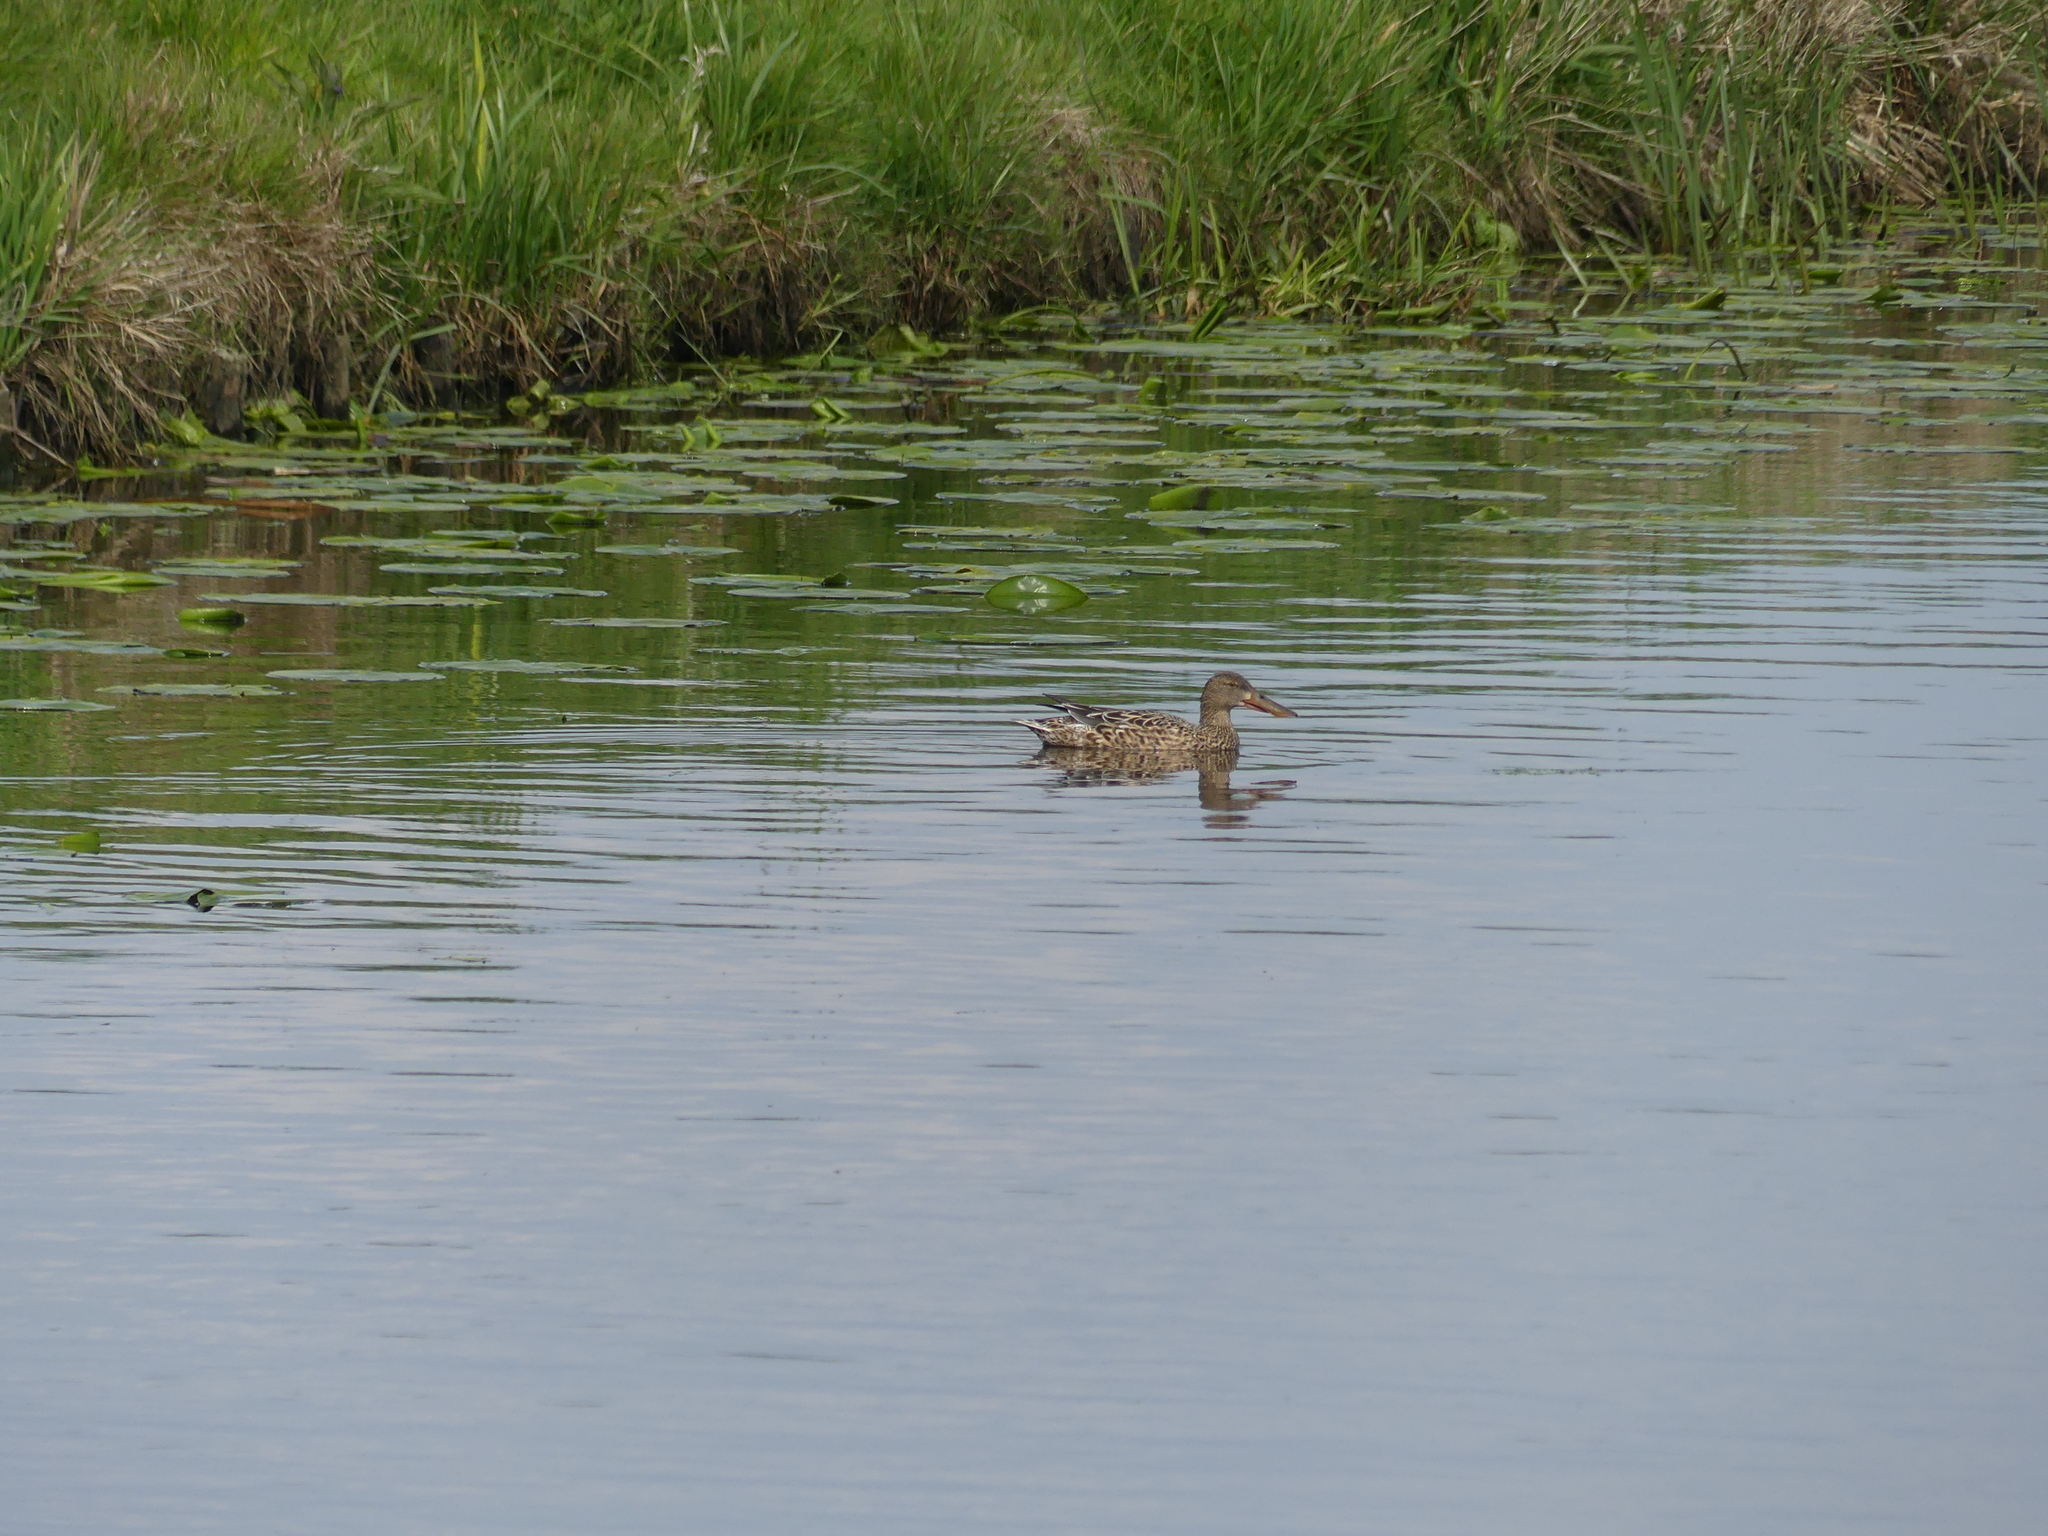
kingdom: Animalia
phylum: Chordata
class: Aves
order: Anseriformes
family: Anatidae
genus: Spatula
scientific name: Spatula clypeata
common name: Northern shoveler
